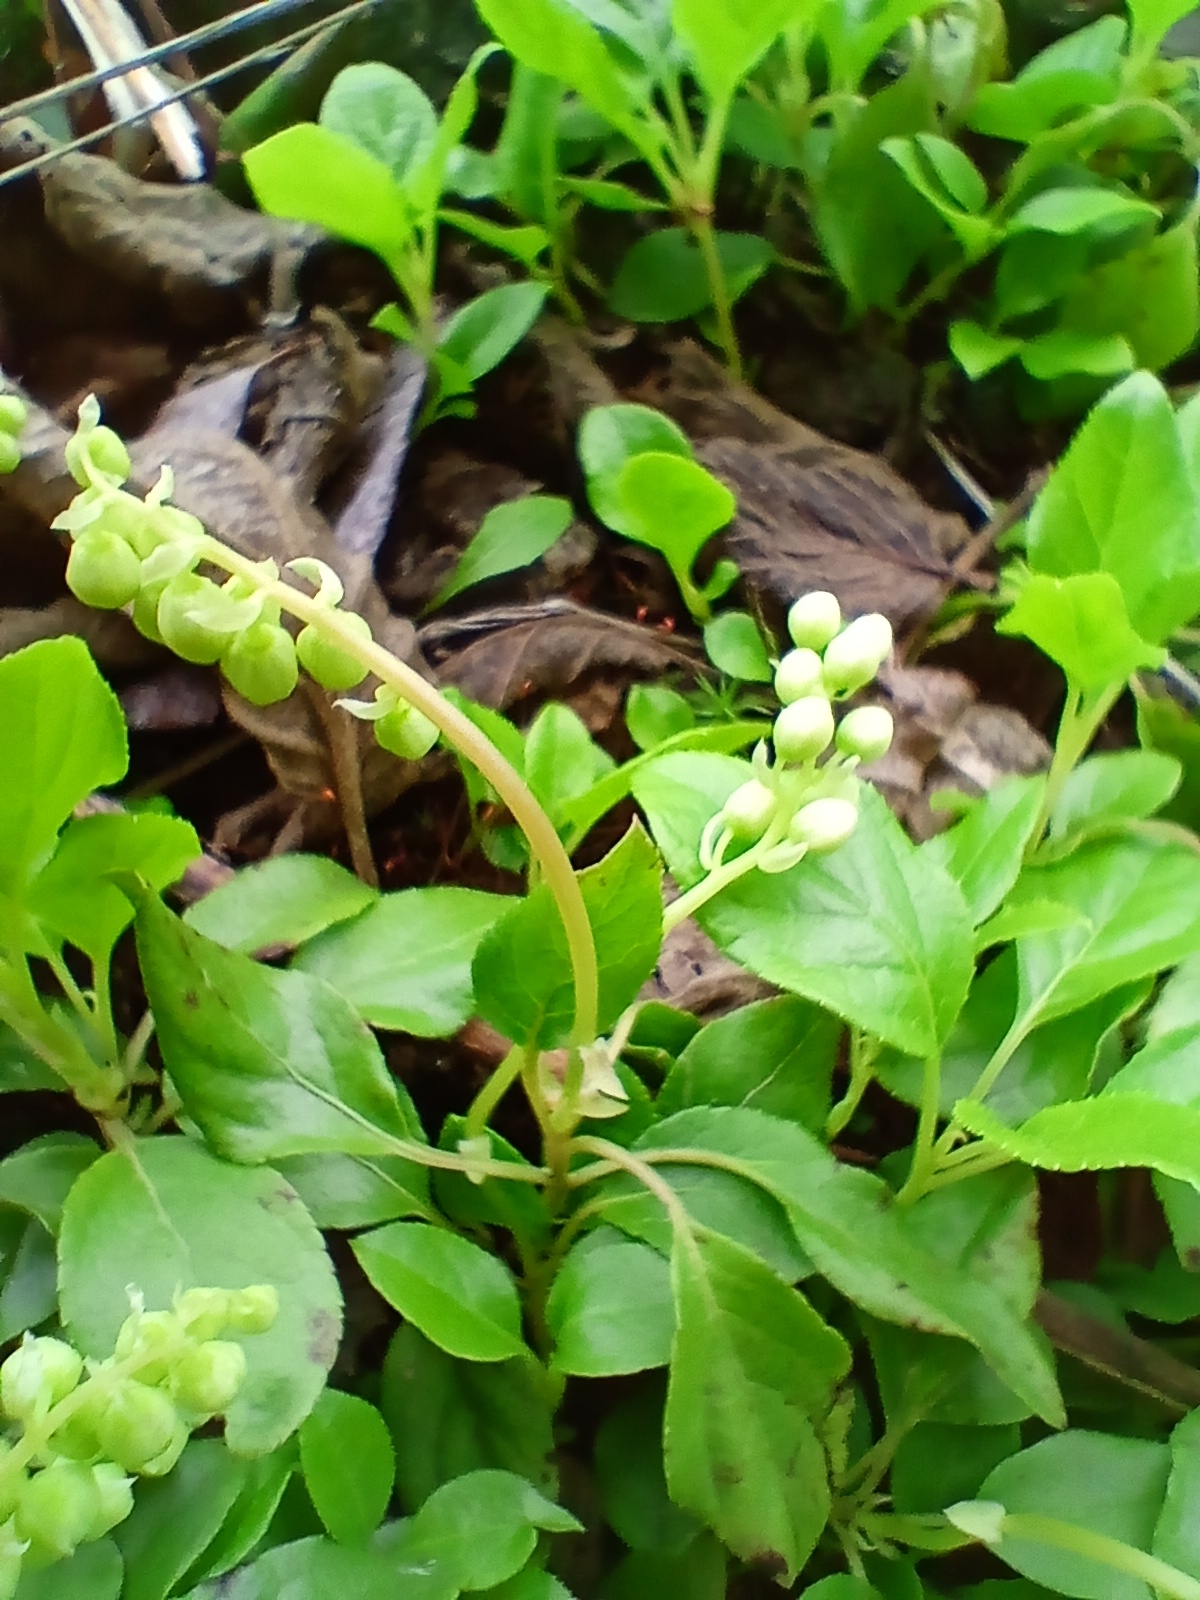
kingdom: Plantae
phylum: Tracheophyta
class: Magnoliopsida
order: Ericales
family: Ericaceae
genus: Orthilia
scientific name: Orthilia secunda
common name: One-sided orthilia
